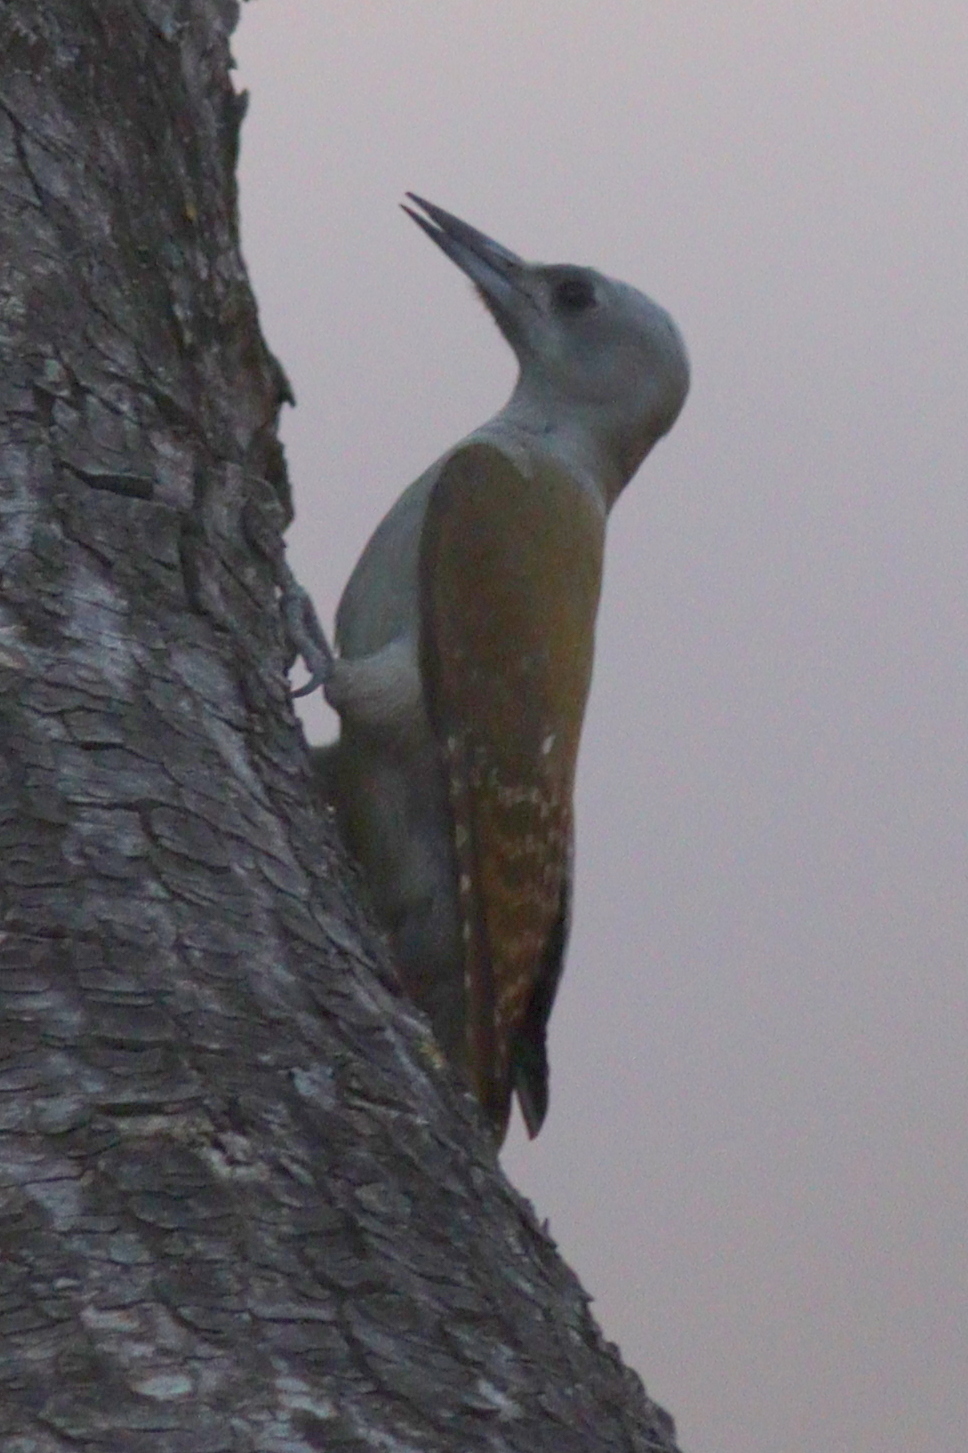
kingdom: Animalia
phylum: Chordata
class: Aves
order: Piciformes
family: Picidae
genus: Dendropicos
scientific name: Dendropicos goertae
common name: African grey woodpecker
